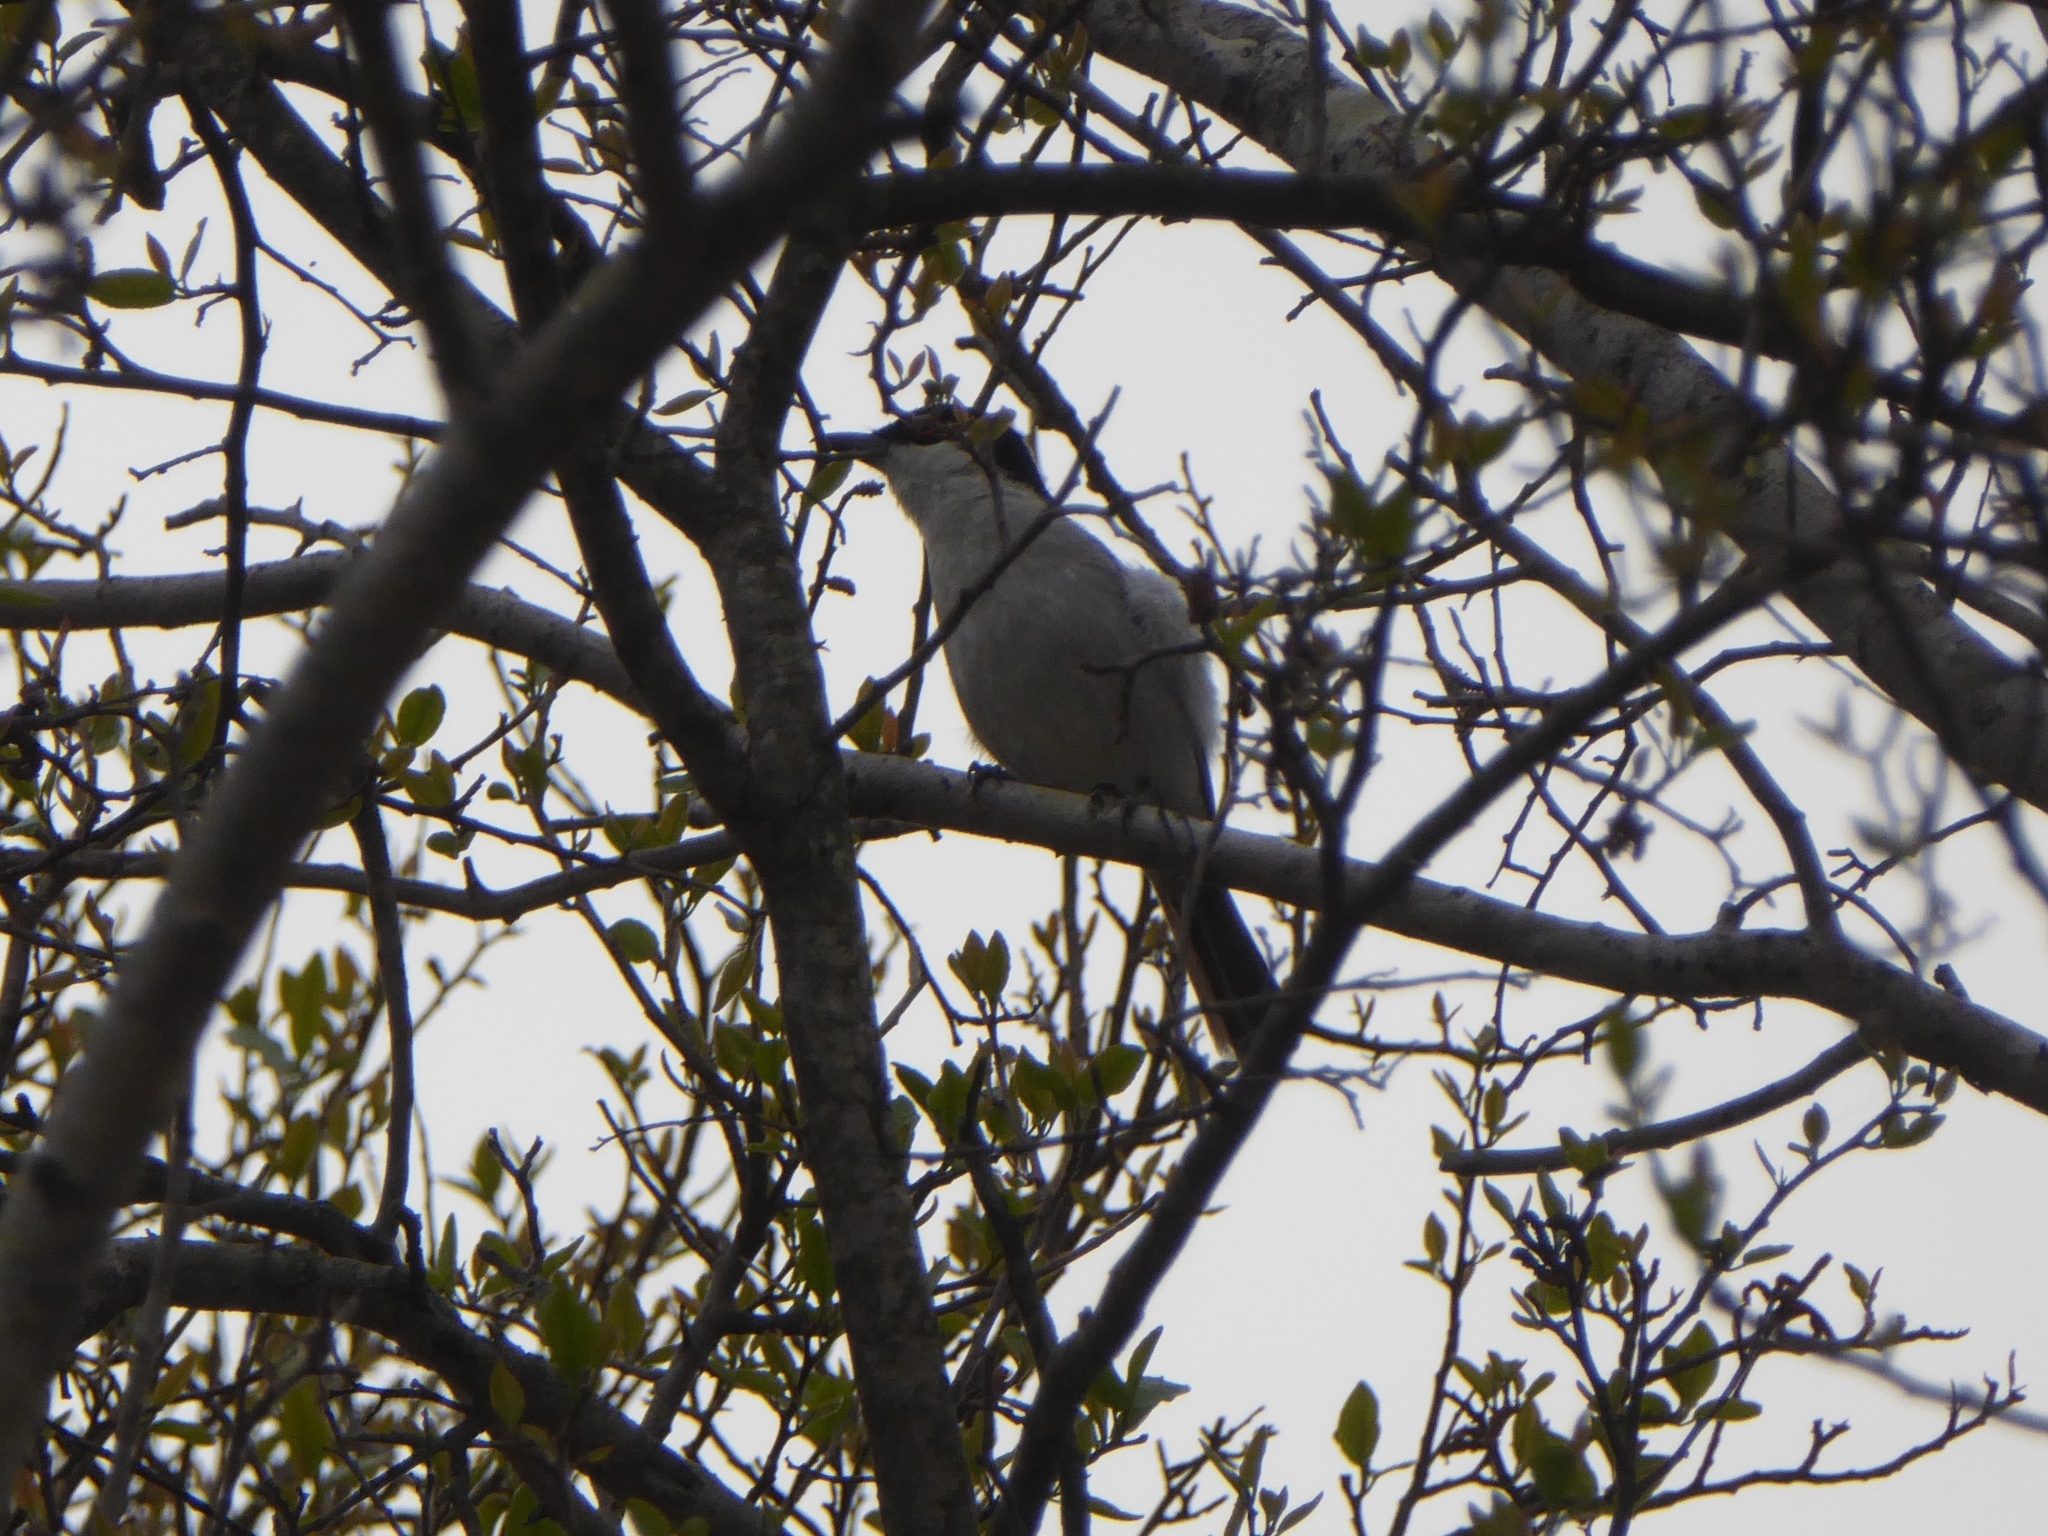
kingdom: Animalia
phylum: Chordata
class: Aves
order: Passeriformes
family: Malaconotidae
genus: Dryoscopus
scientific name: Dryoscopus cubla
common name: Black-backed puffback
